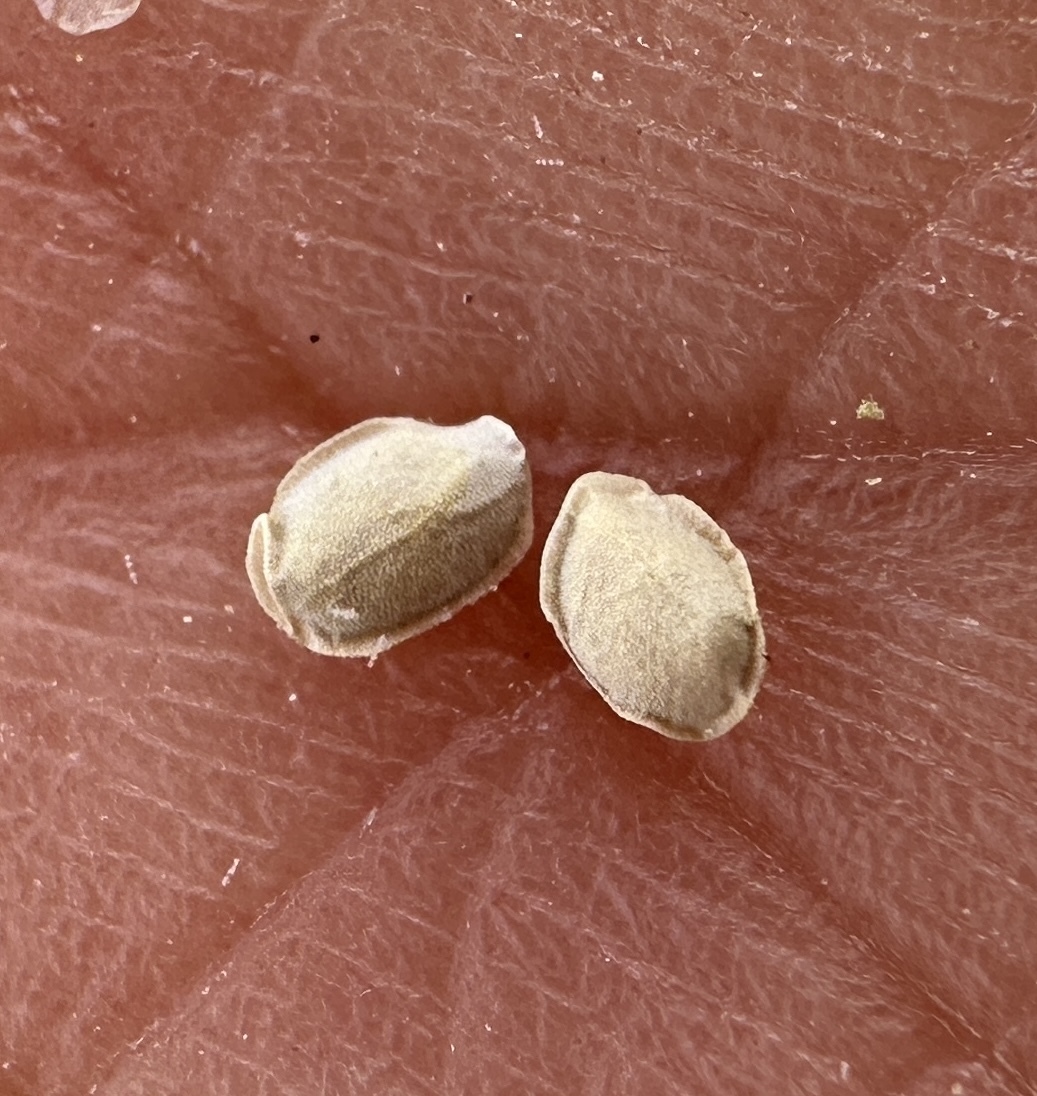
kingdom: Plantae
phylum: Tracheophyta
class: Magnoliopsida
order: Cornales
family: Loasaceae
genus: Mentzelia
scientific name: Mentzelia tiehmii
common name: Tiehm's blazing star
